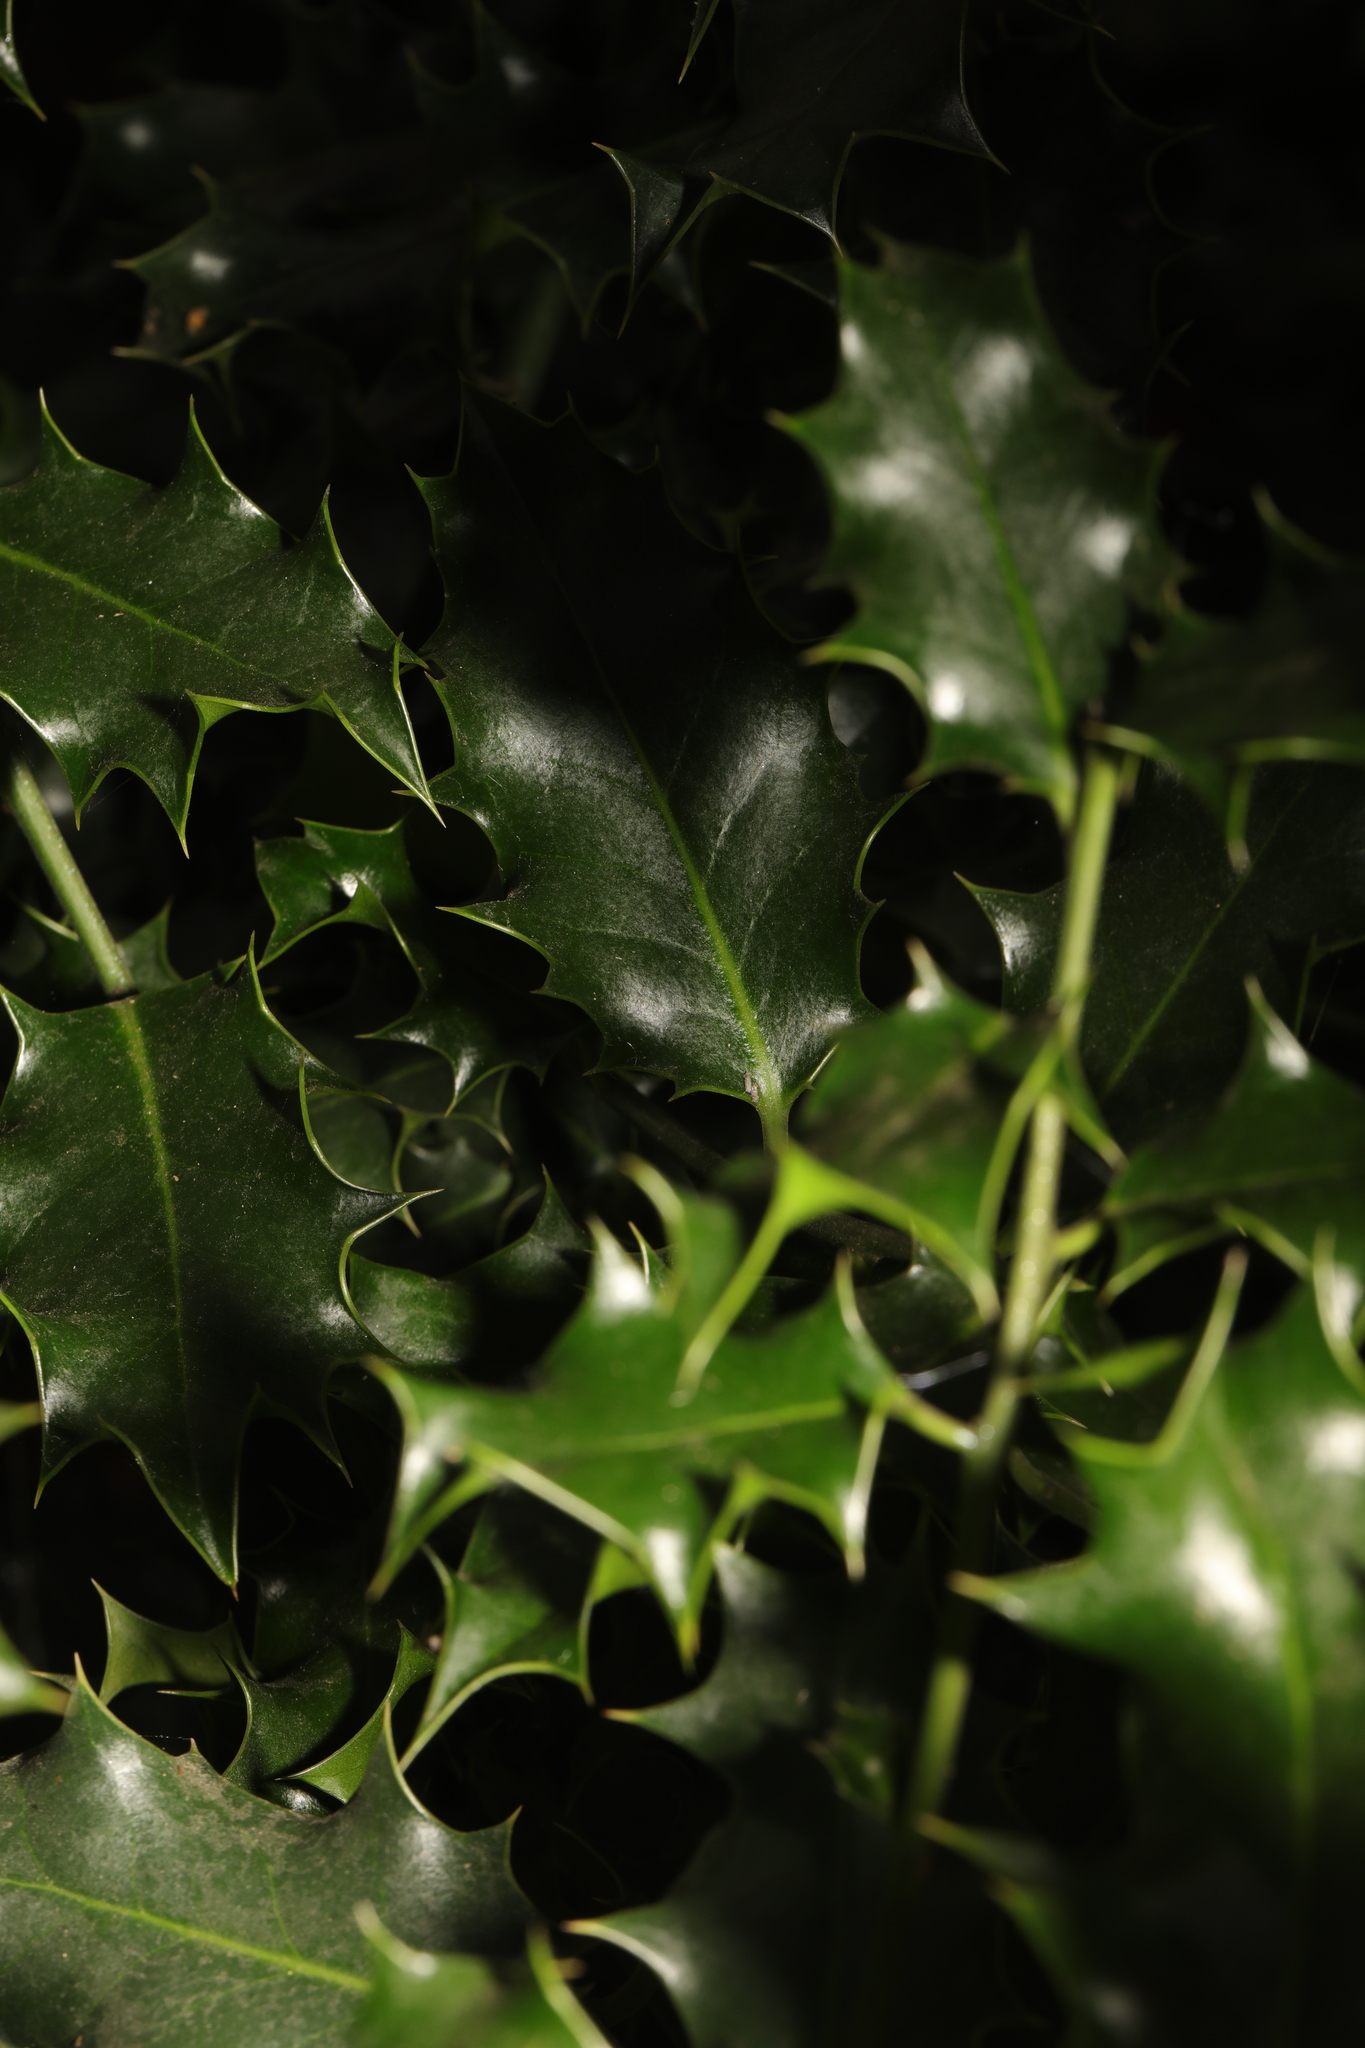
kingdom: Plantae
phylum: Tracheophyta
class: Magnoliopsida
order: Aquifoliales
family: Aquifoliaceae
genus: Ilex
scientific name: Ilex aquifolium
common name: English holly
